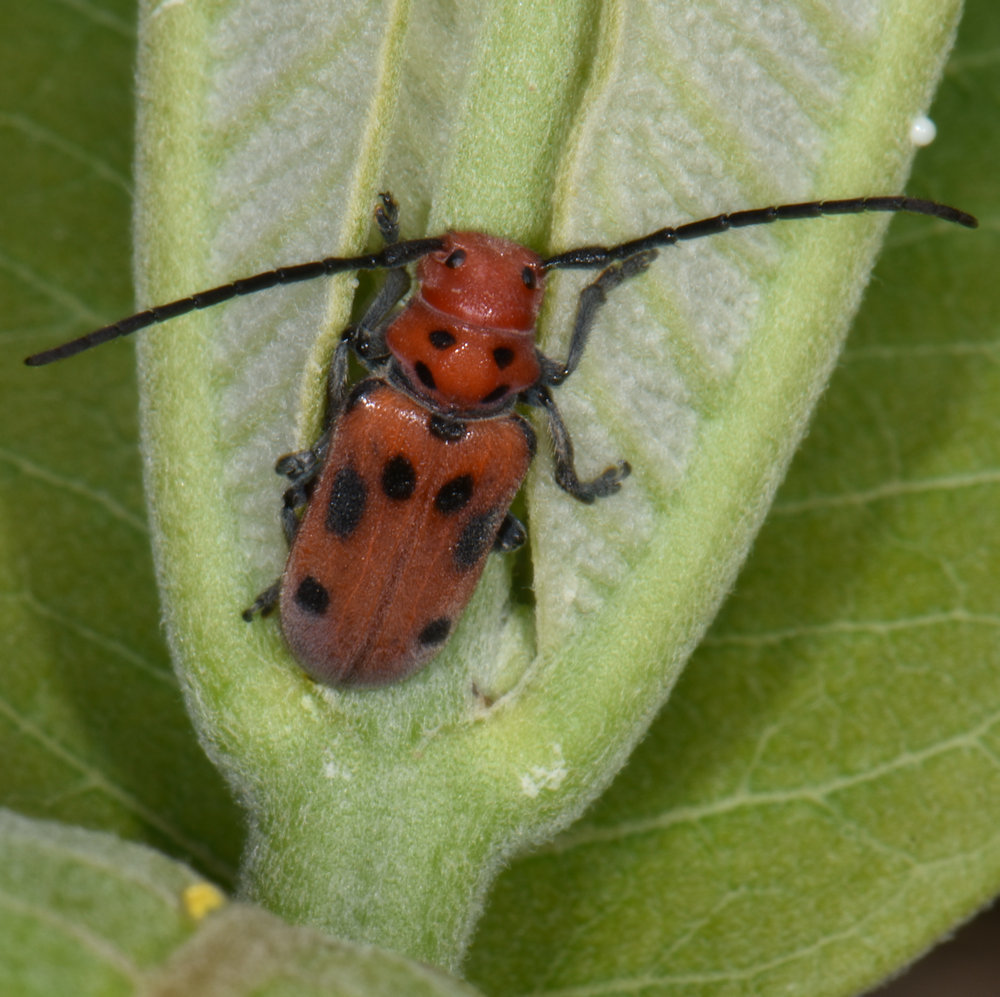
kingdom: Animalia
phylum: Arthropoda
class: Insecta
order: Coleoptera
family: Cerambycidae
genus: Tetraopes
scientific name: Tetraopes tetrophthalmus
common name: Red milkweed beetle
